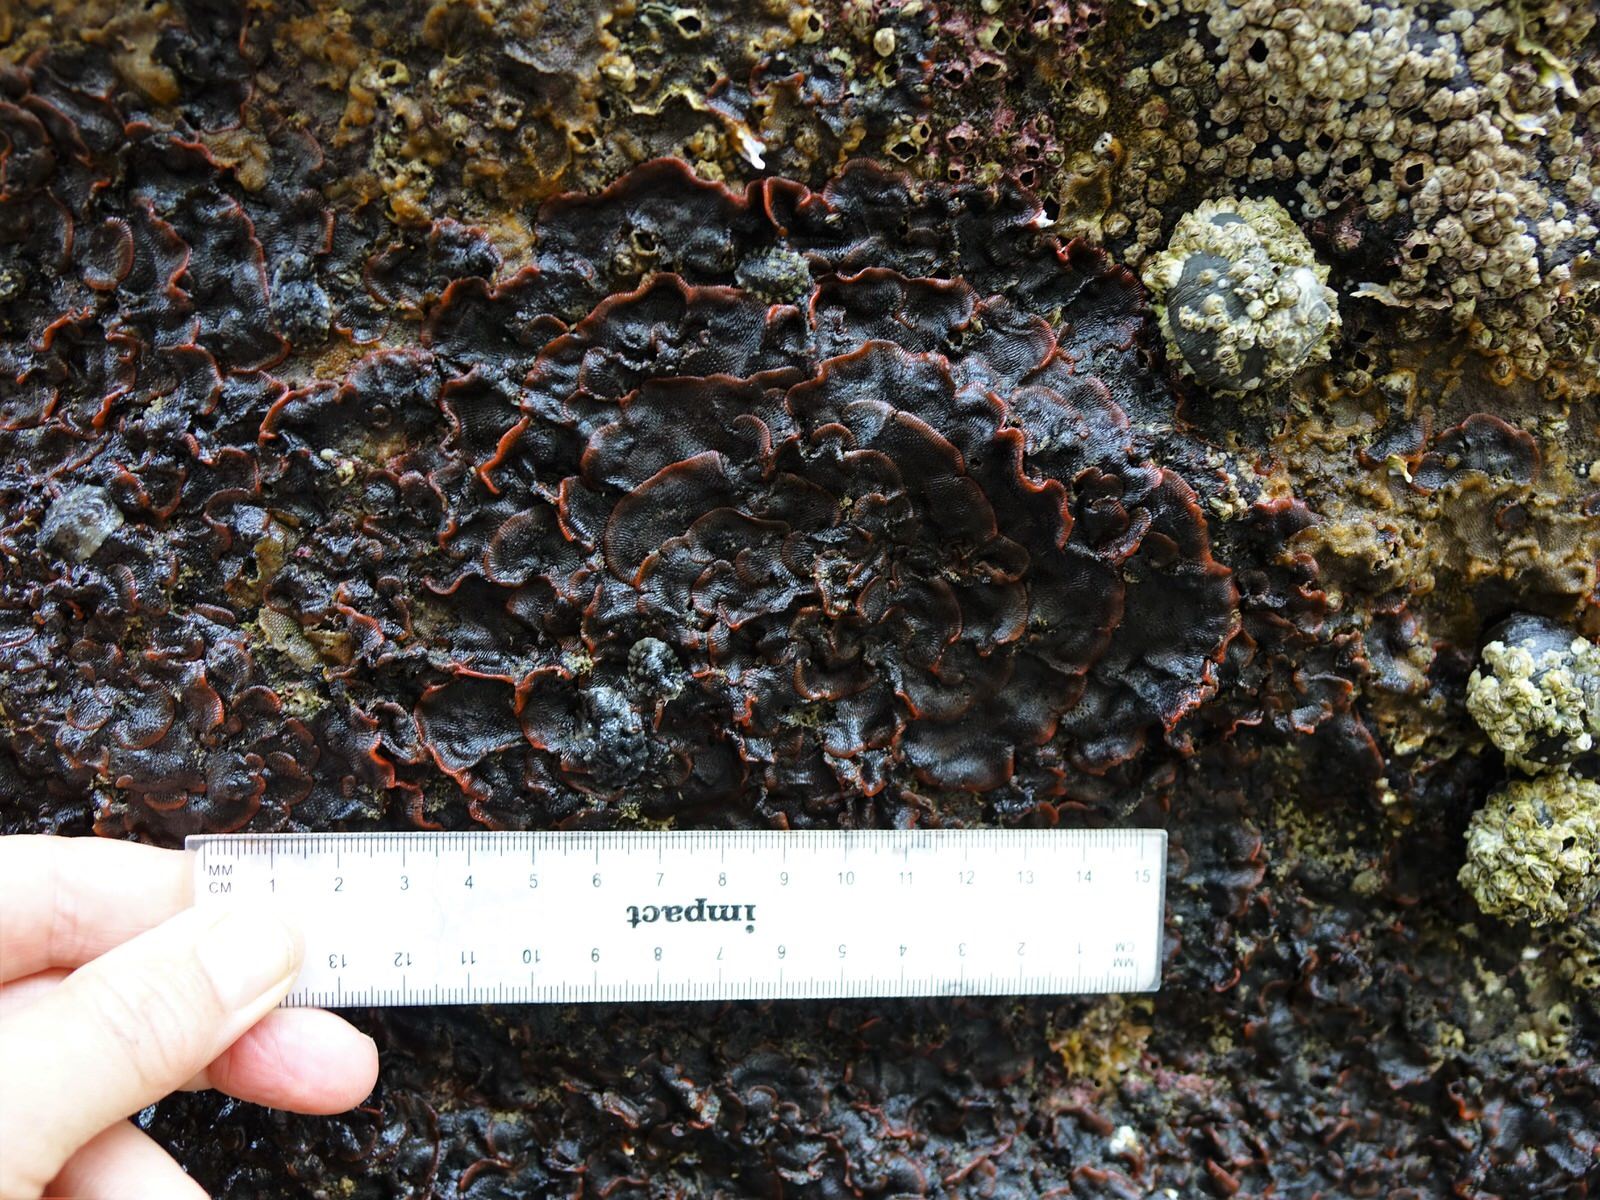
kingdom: Animalia
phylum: Bryozoa
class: Gymnolaemata
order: Cheilostomatida
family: Watersiporidae
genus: Watersipora
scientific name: Watersipora subatra
